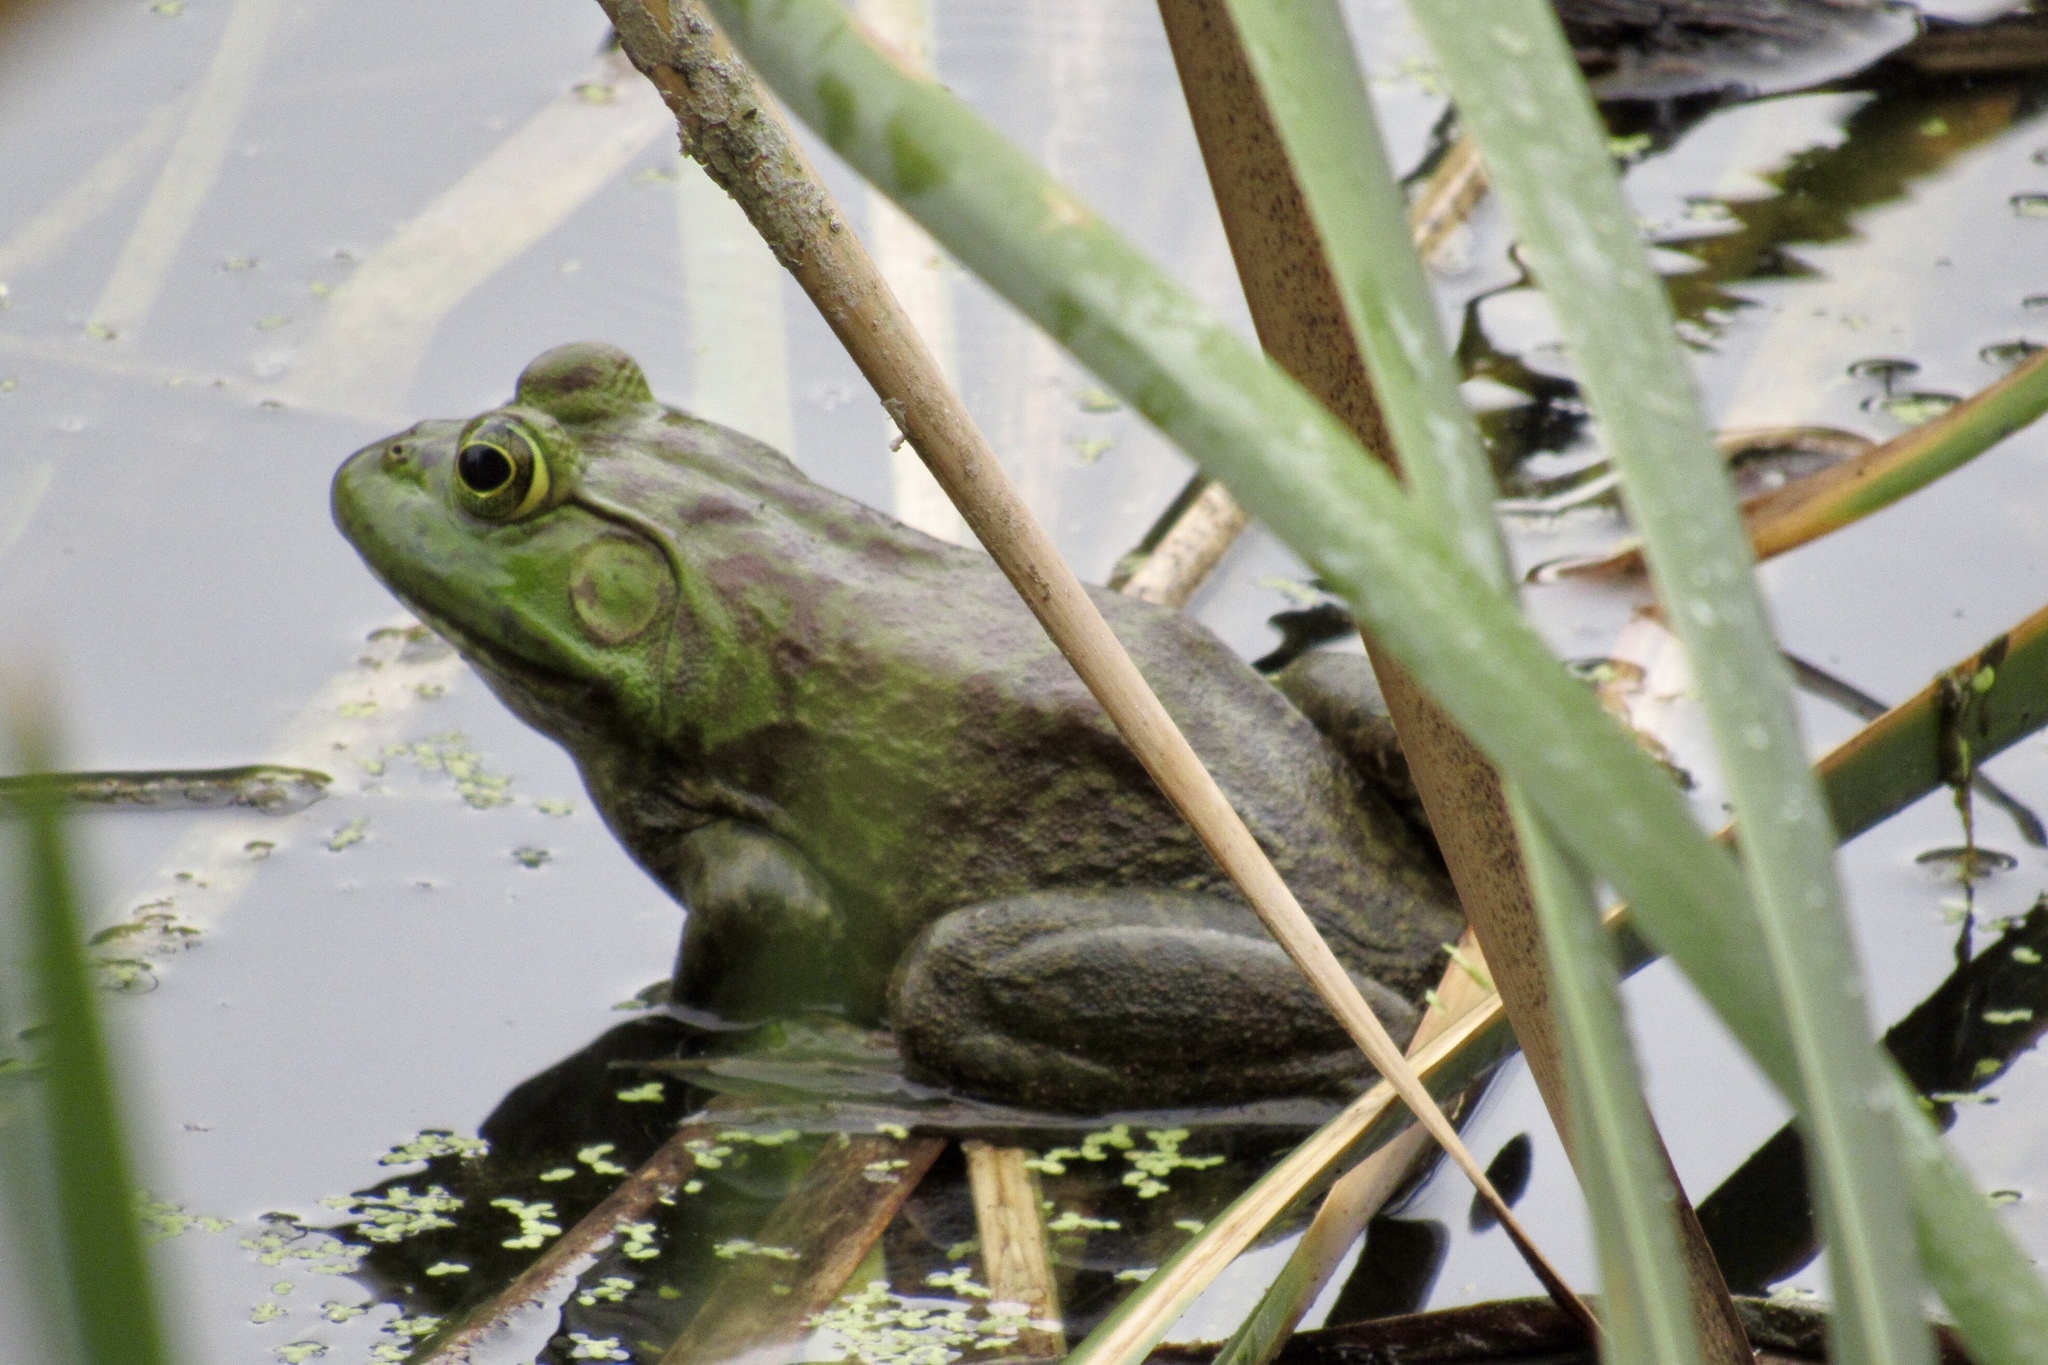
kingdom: Animalia
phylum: Chordata
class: Amphibia
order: Anura
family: Ranidae
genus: Lithobates
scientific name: Lithobates catesbeianus
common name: American bullfrog
